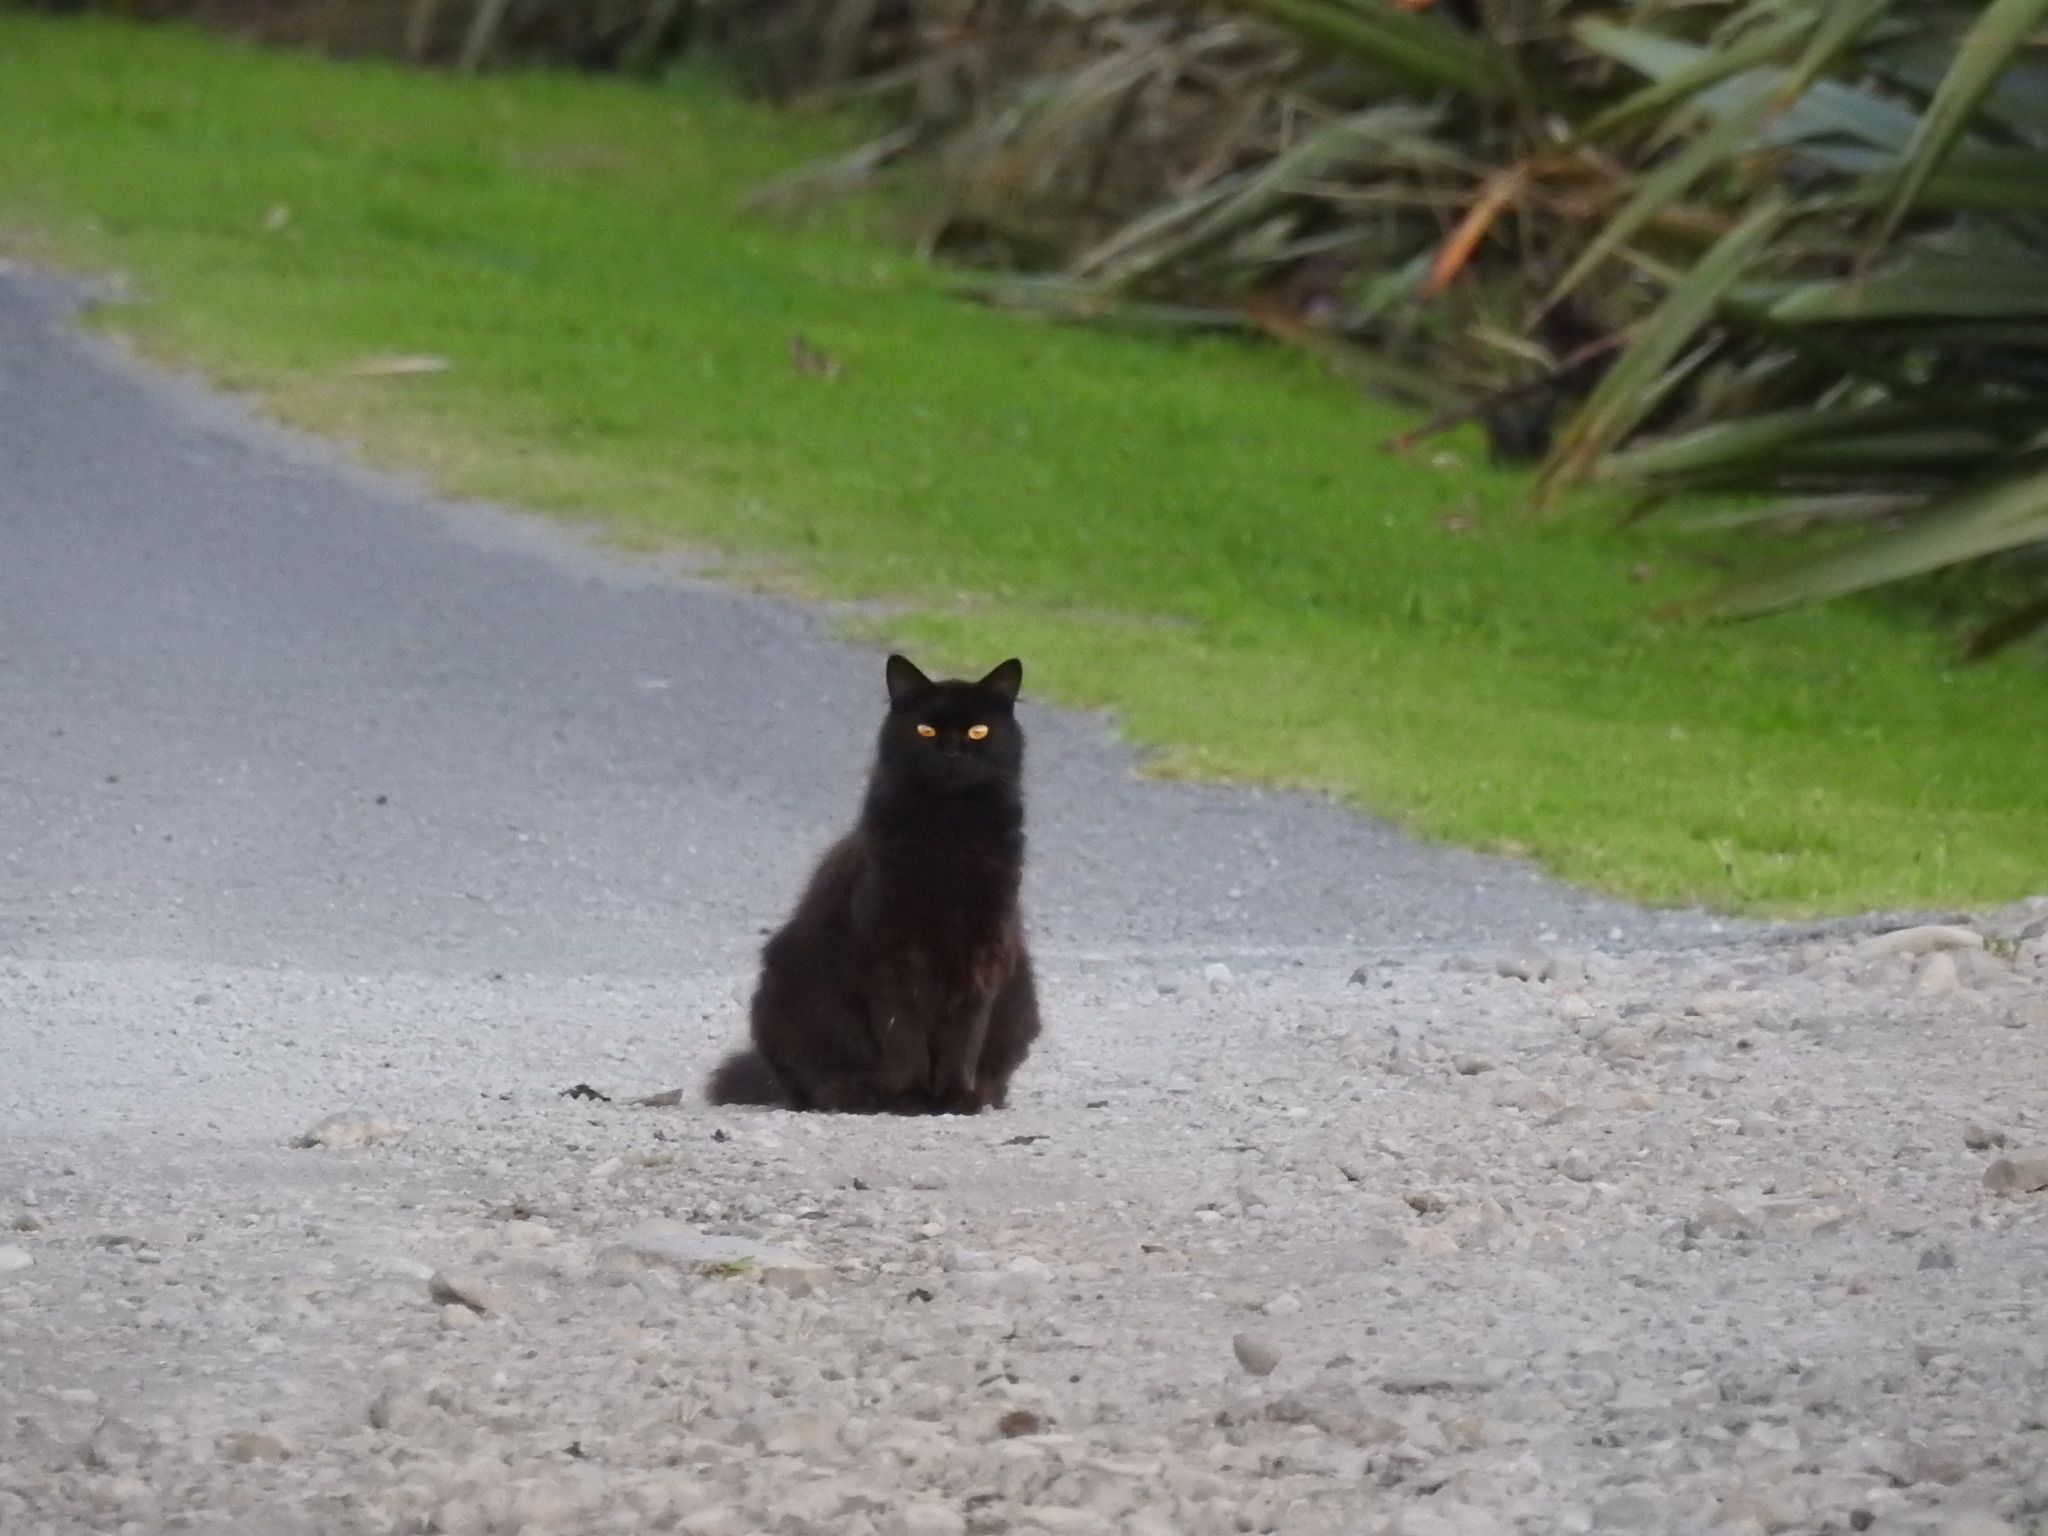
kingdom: Animalia
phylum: Chordata
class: Mammalia
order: Carnivora
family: Felidae
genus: Felis
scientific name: Felis catus
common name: Domestic cat
